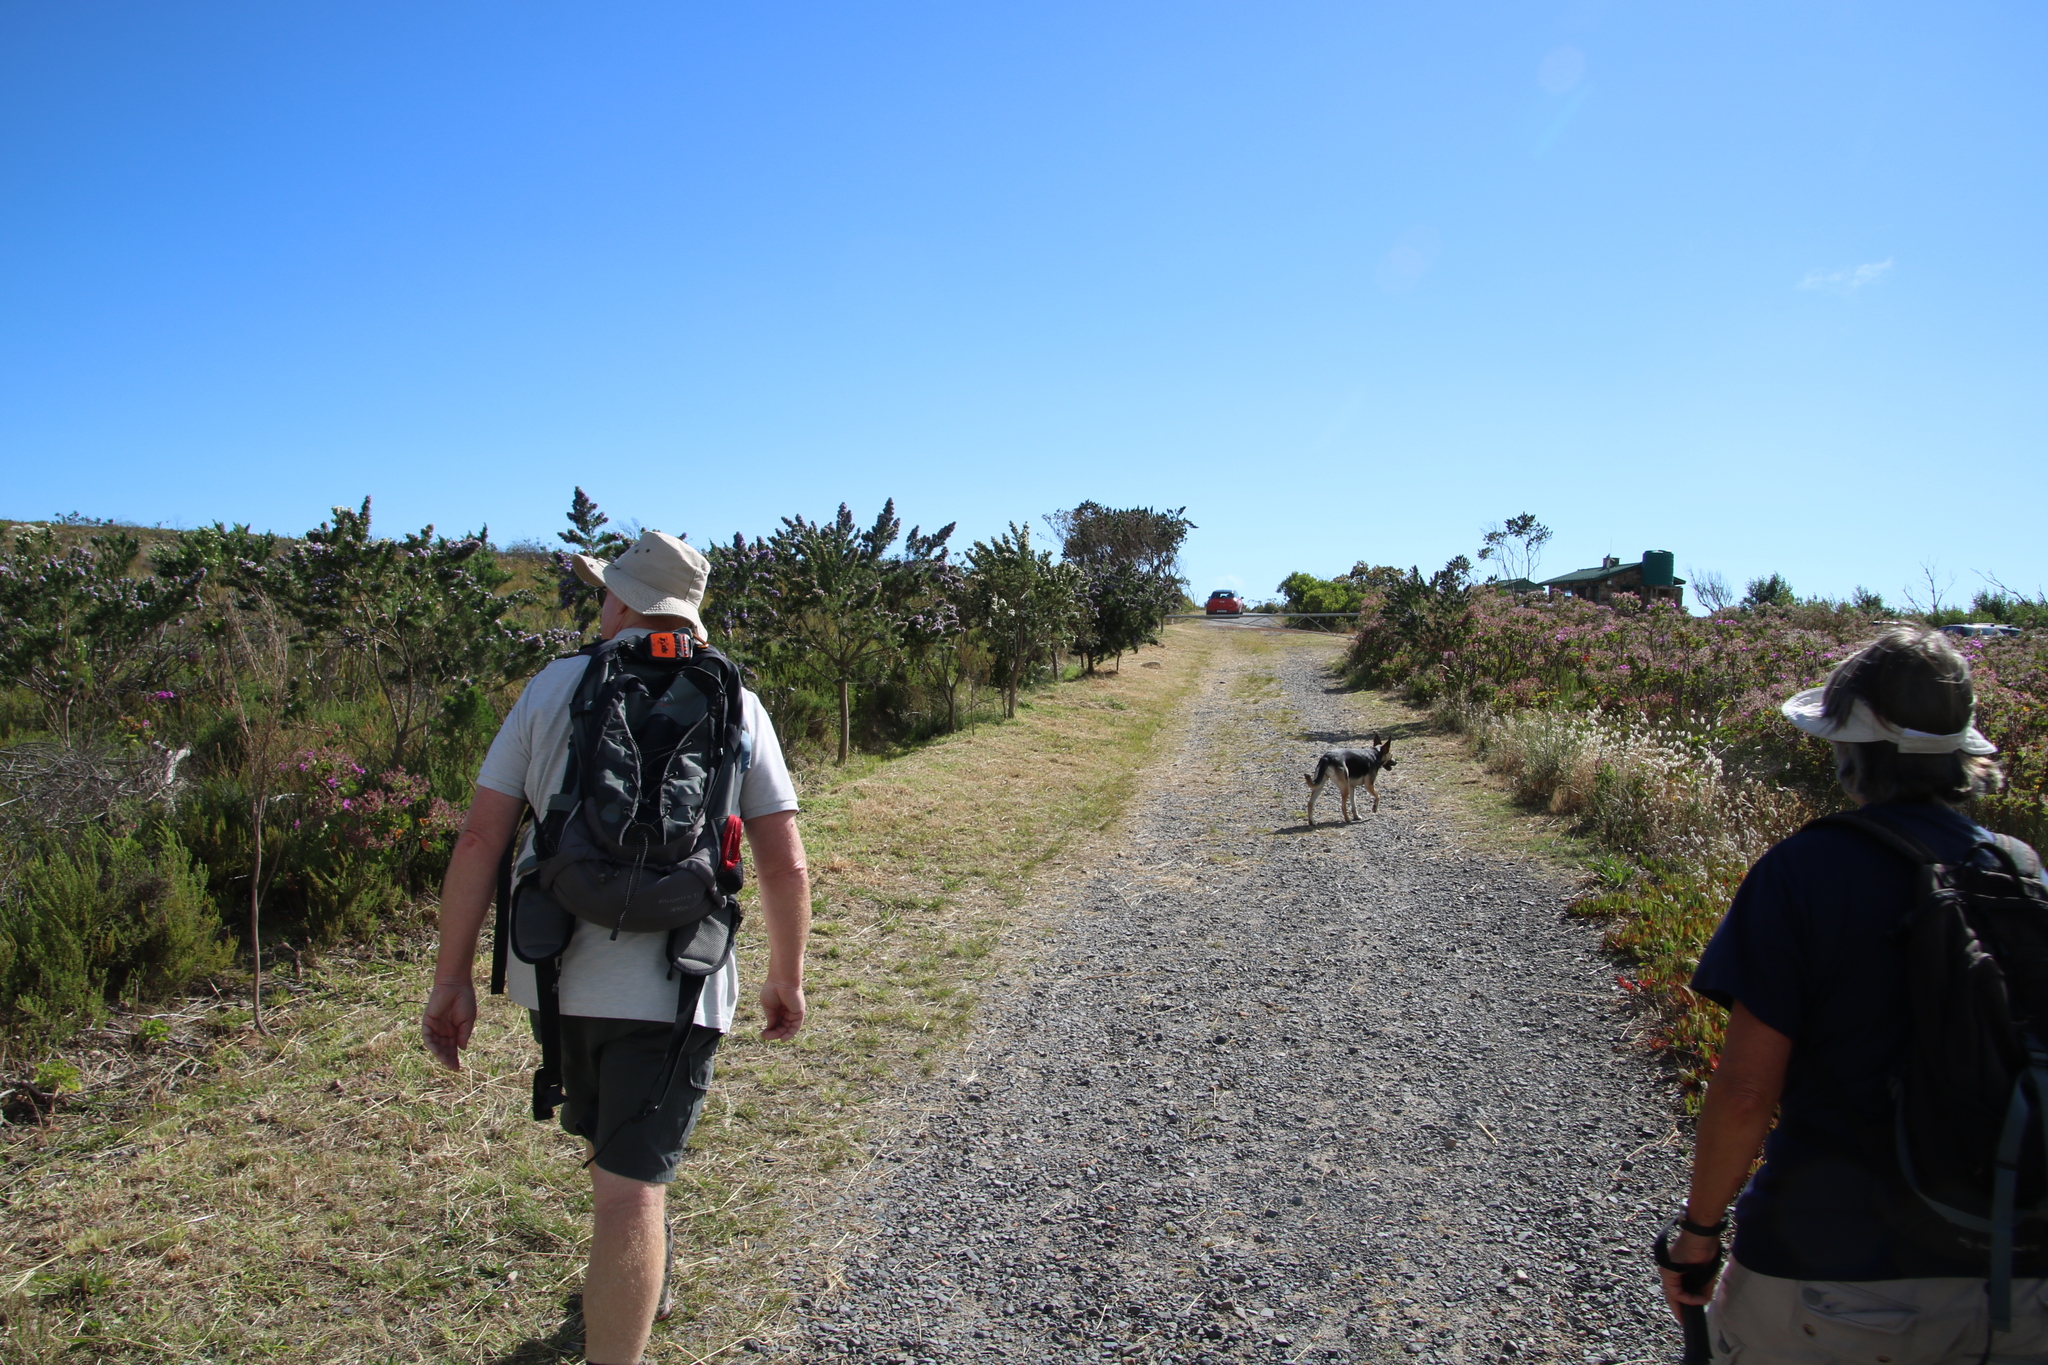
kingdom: Plantae
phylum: Tracheophyta
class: Magnoliopsida
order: Fabales
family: Fabaceae
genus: Trifolium
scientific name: Trifolium angustifolium
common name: Narrow clover
